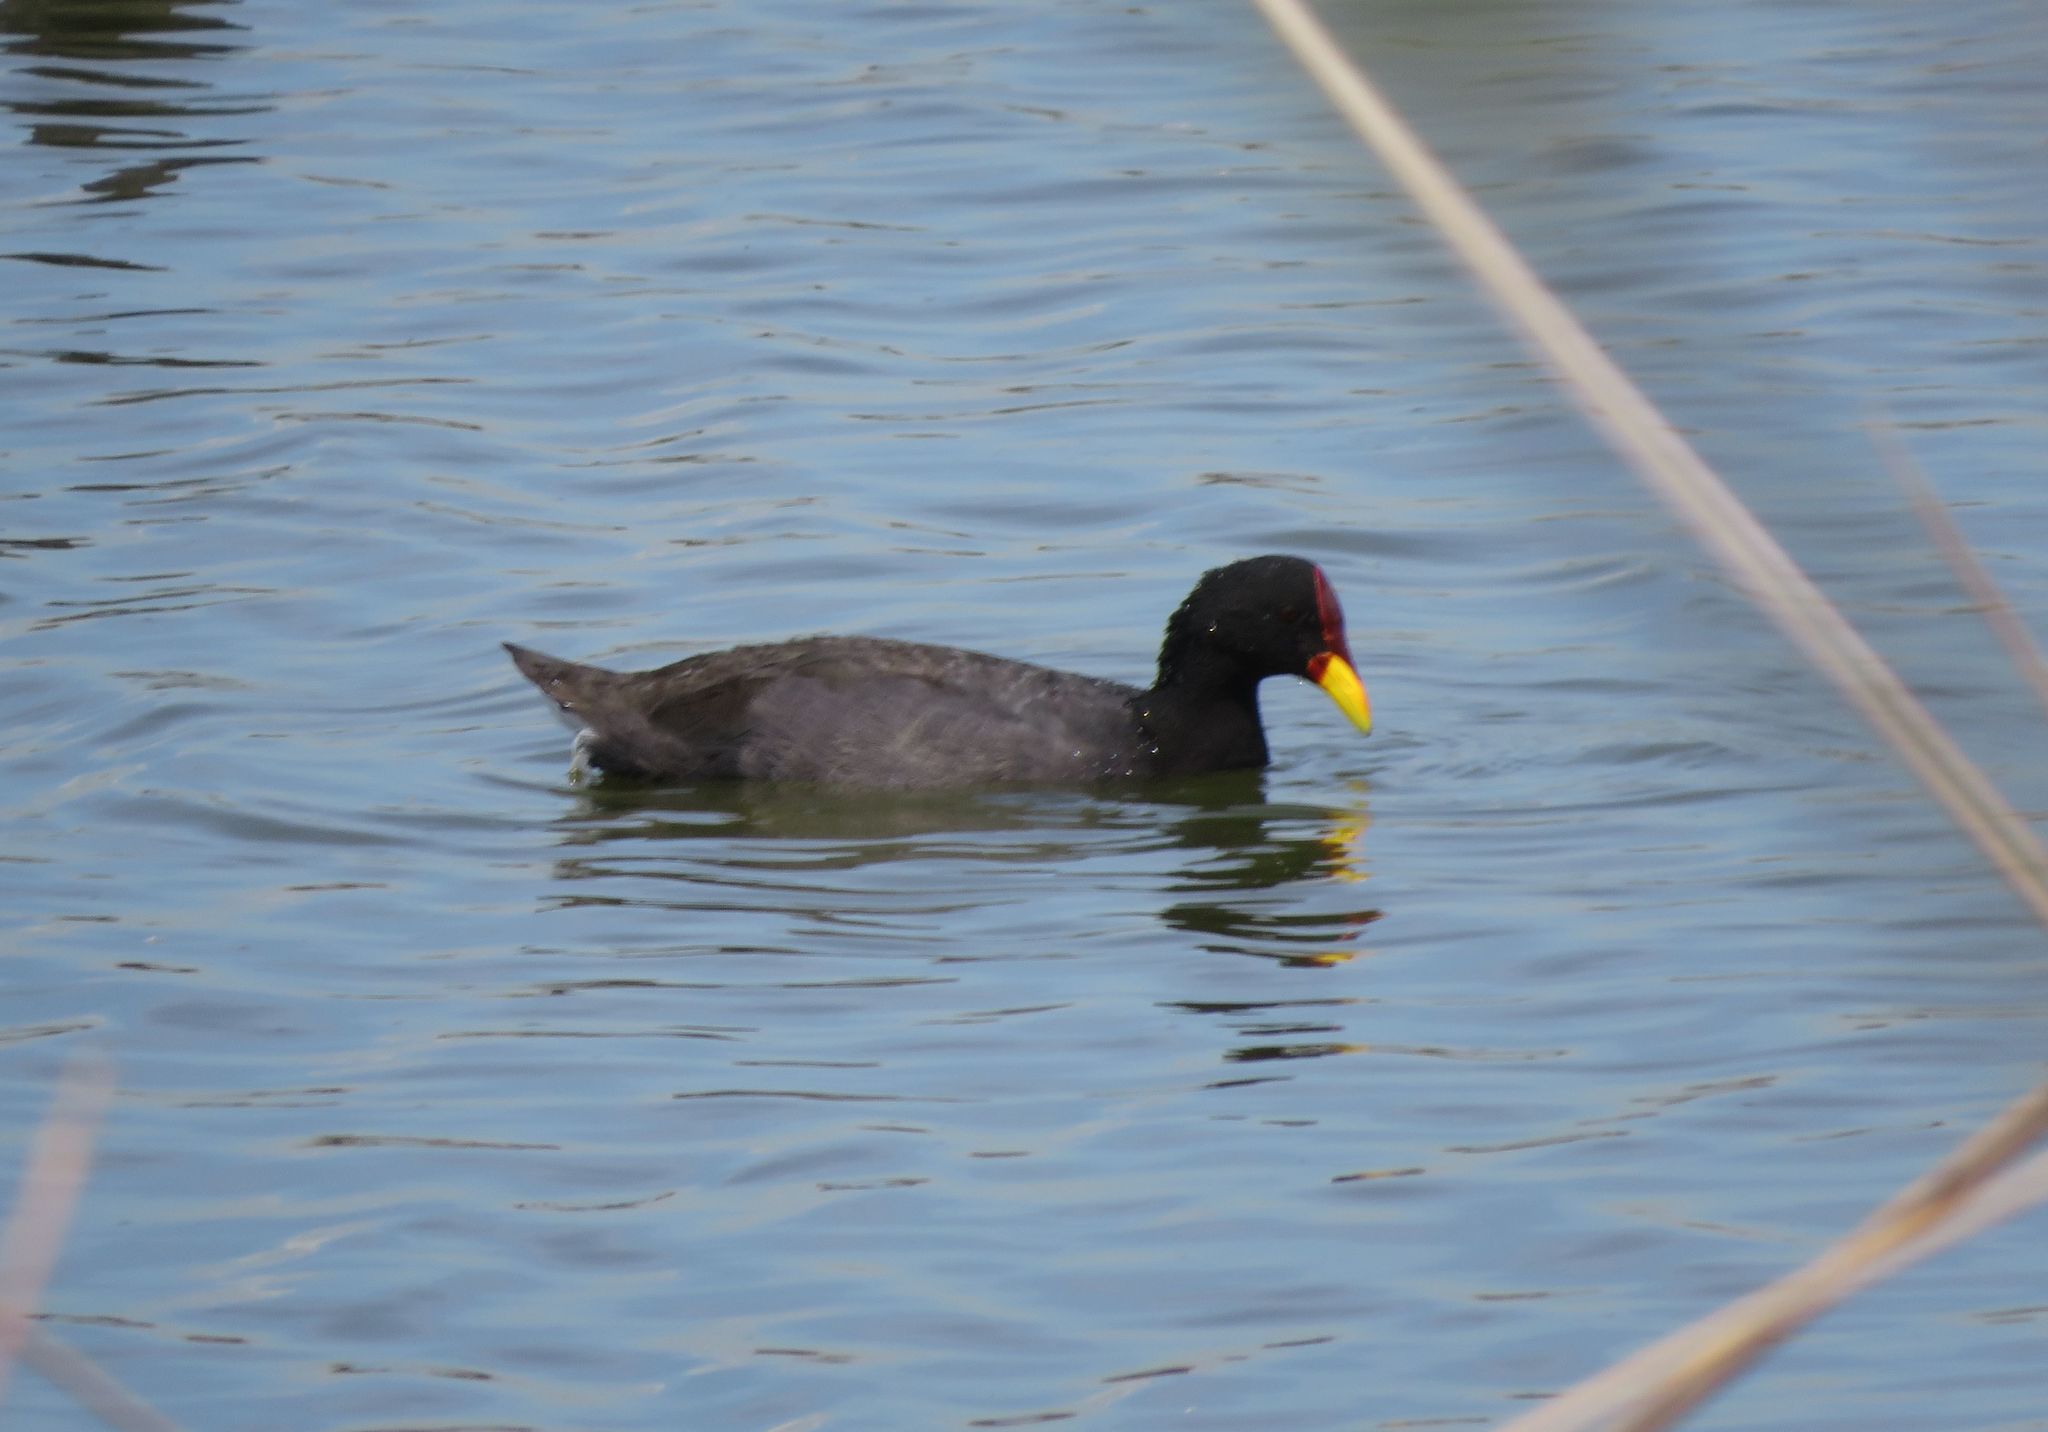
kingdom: Animalia
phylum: Chordata
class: Aves
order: Gruiformes
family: Rallidae
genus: Fulica
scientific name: Fulica rufifrons
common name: Red-fronted coot
